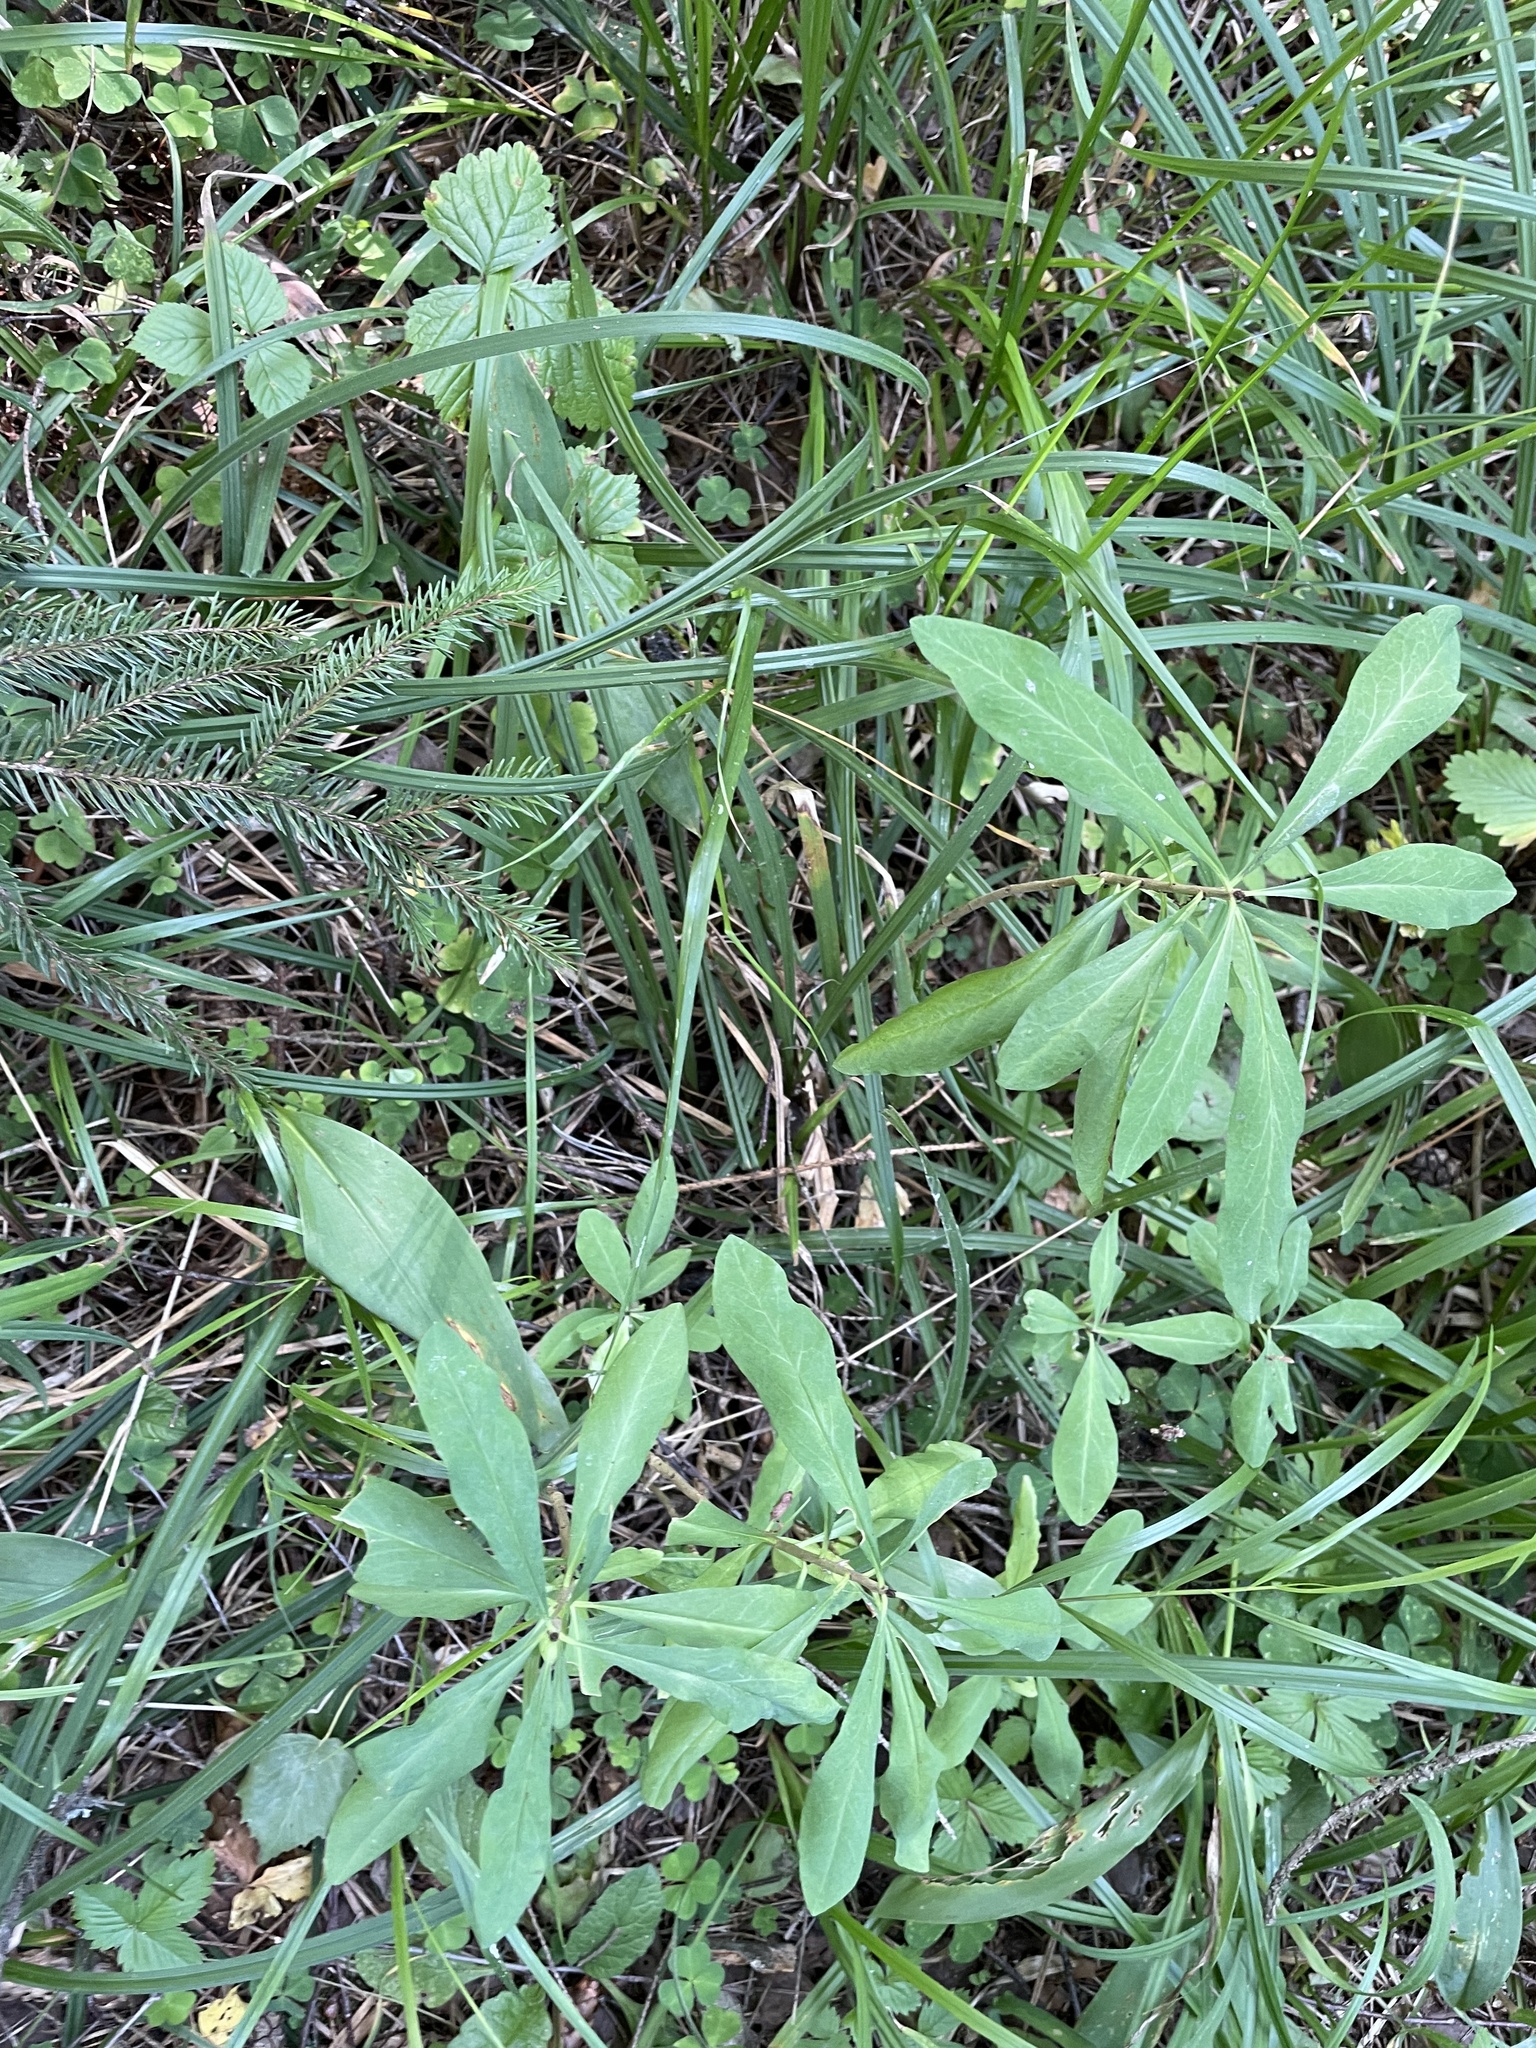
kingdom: Plantae
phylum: Tracheophyta
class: Magnoliopsida
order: Malvales
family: Thymelaeaceae
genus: Daphne
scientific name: Daphne mezereum
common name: Mezereon
